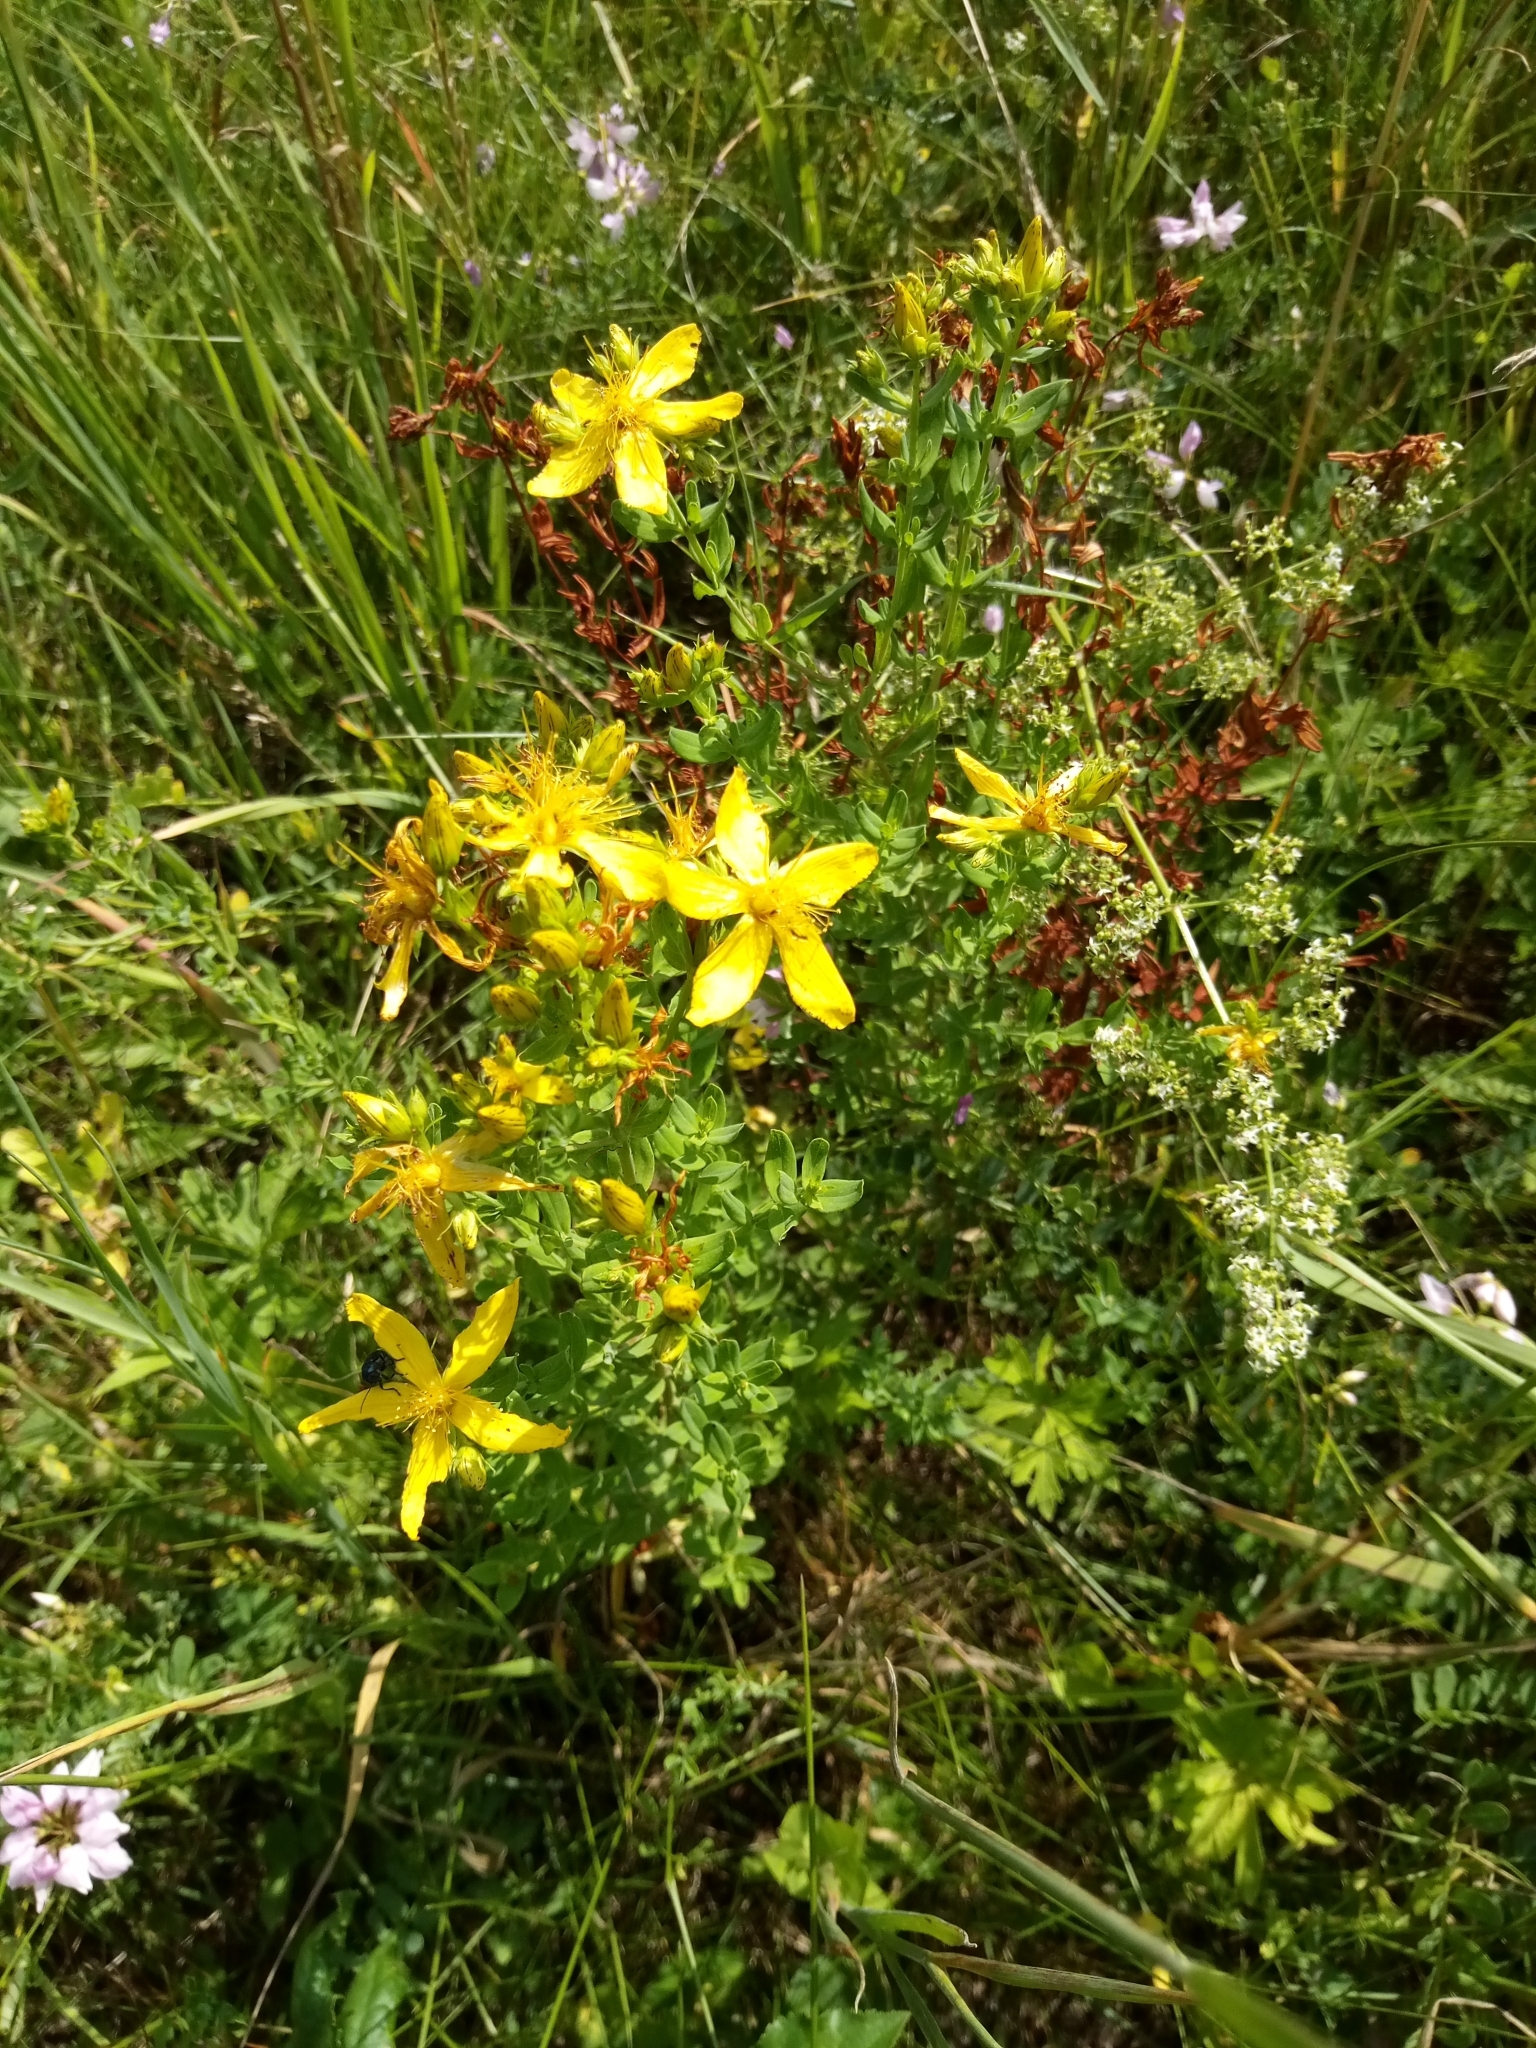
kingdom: Plantae
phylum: Tracheophyta
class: Magnoliopsida
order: Malpighiales
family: Hypericaceae
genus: Hypericum
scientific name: Hypericum perforatum
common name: Common st. johnswort
